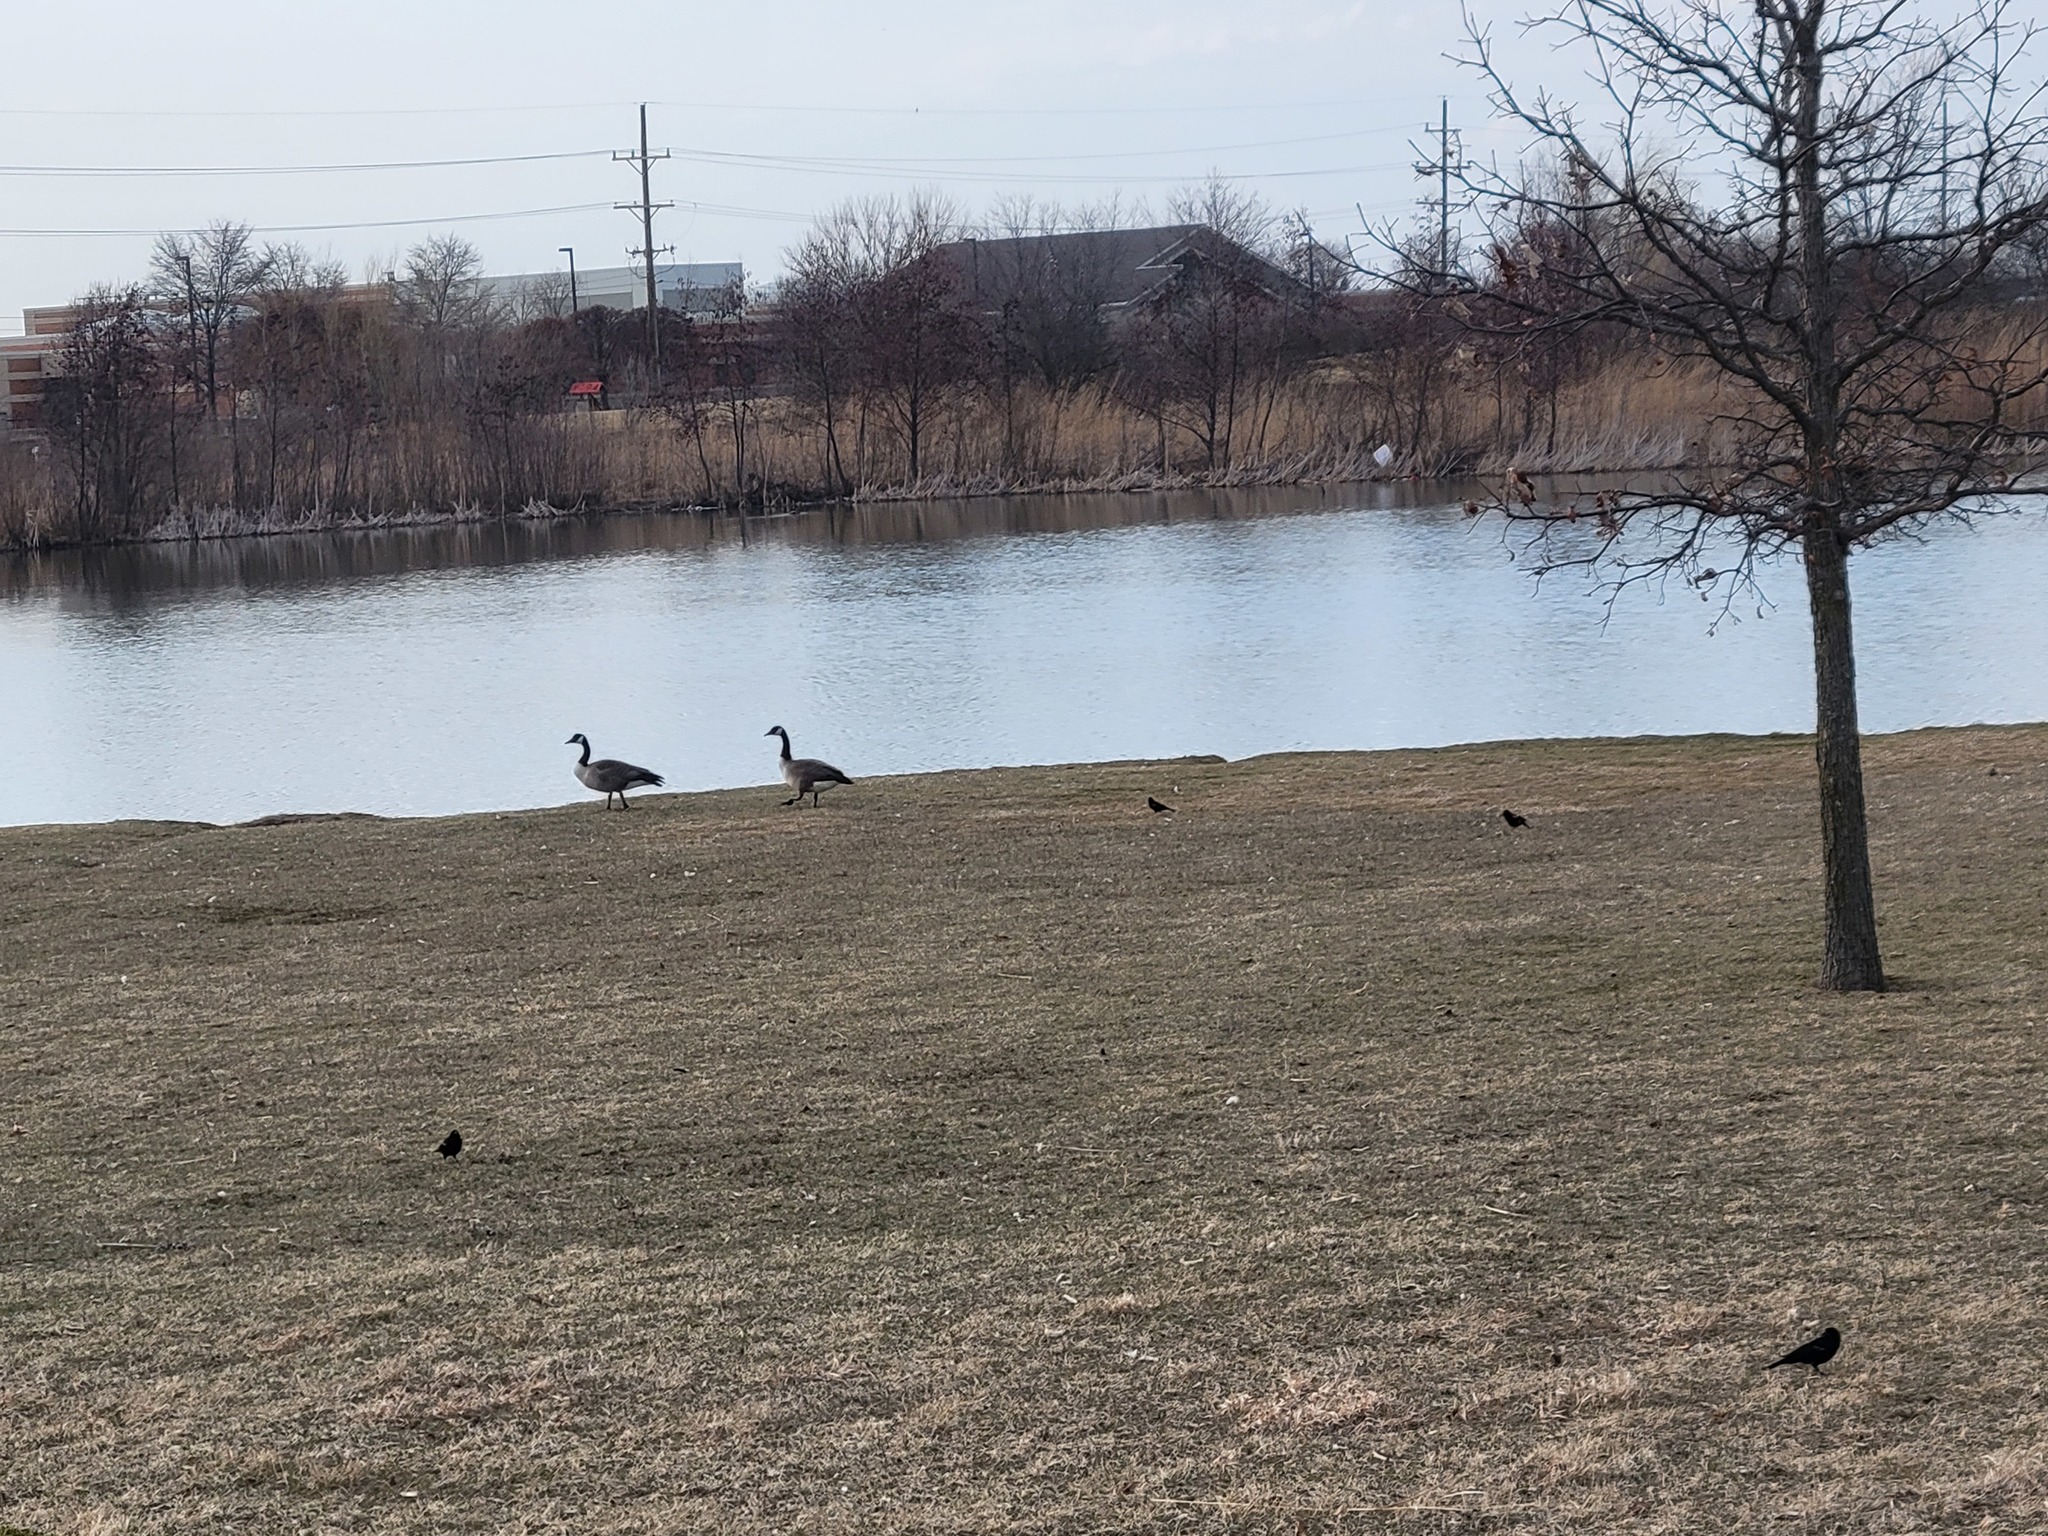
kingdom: Animalia
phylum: Chordata
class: Aves
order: Anseriformes
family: Anatidae
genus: Branta
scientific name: Branta canadensis
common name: Canada goose
